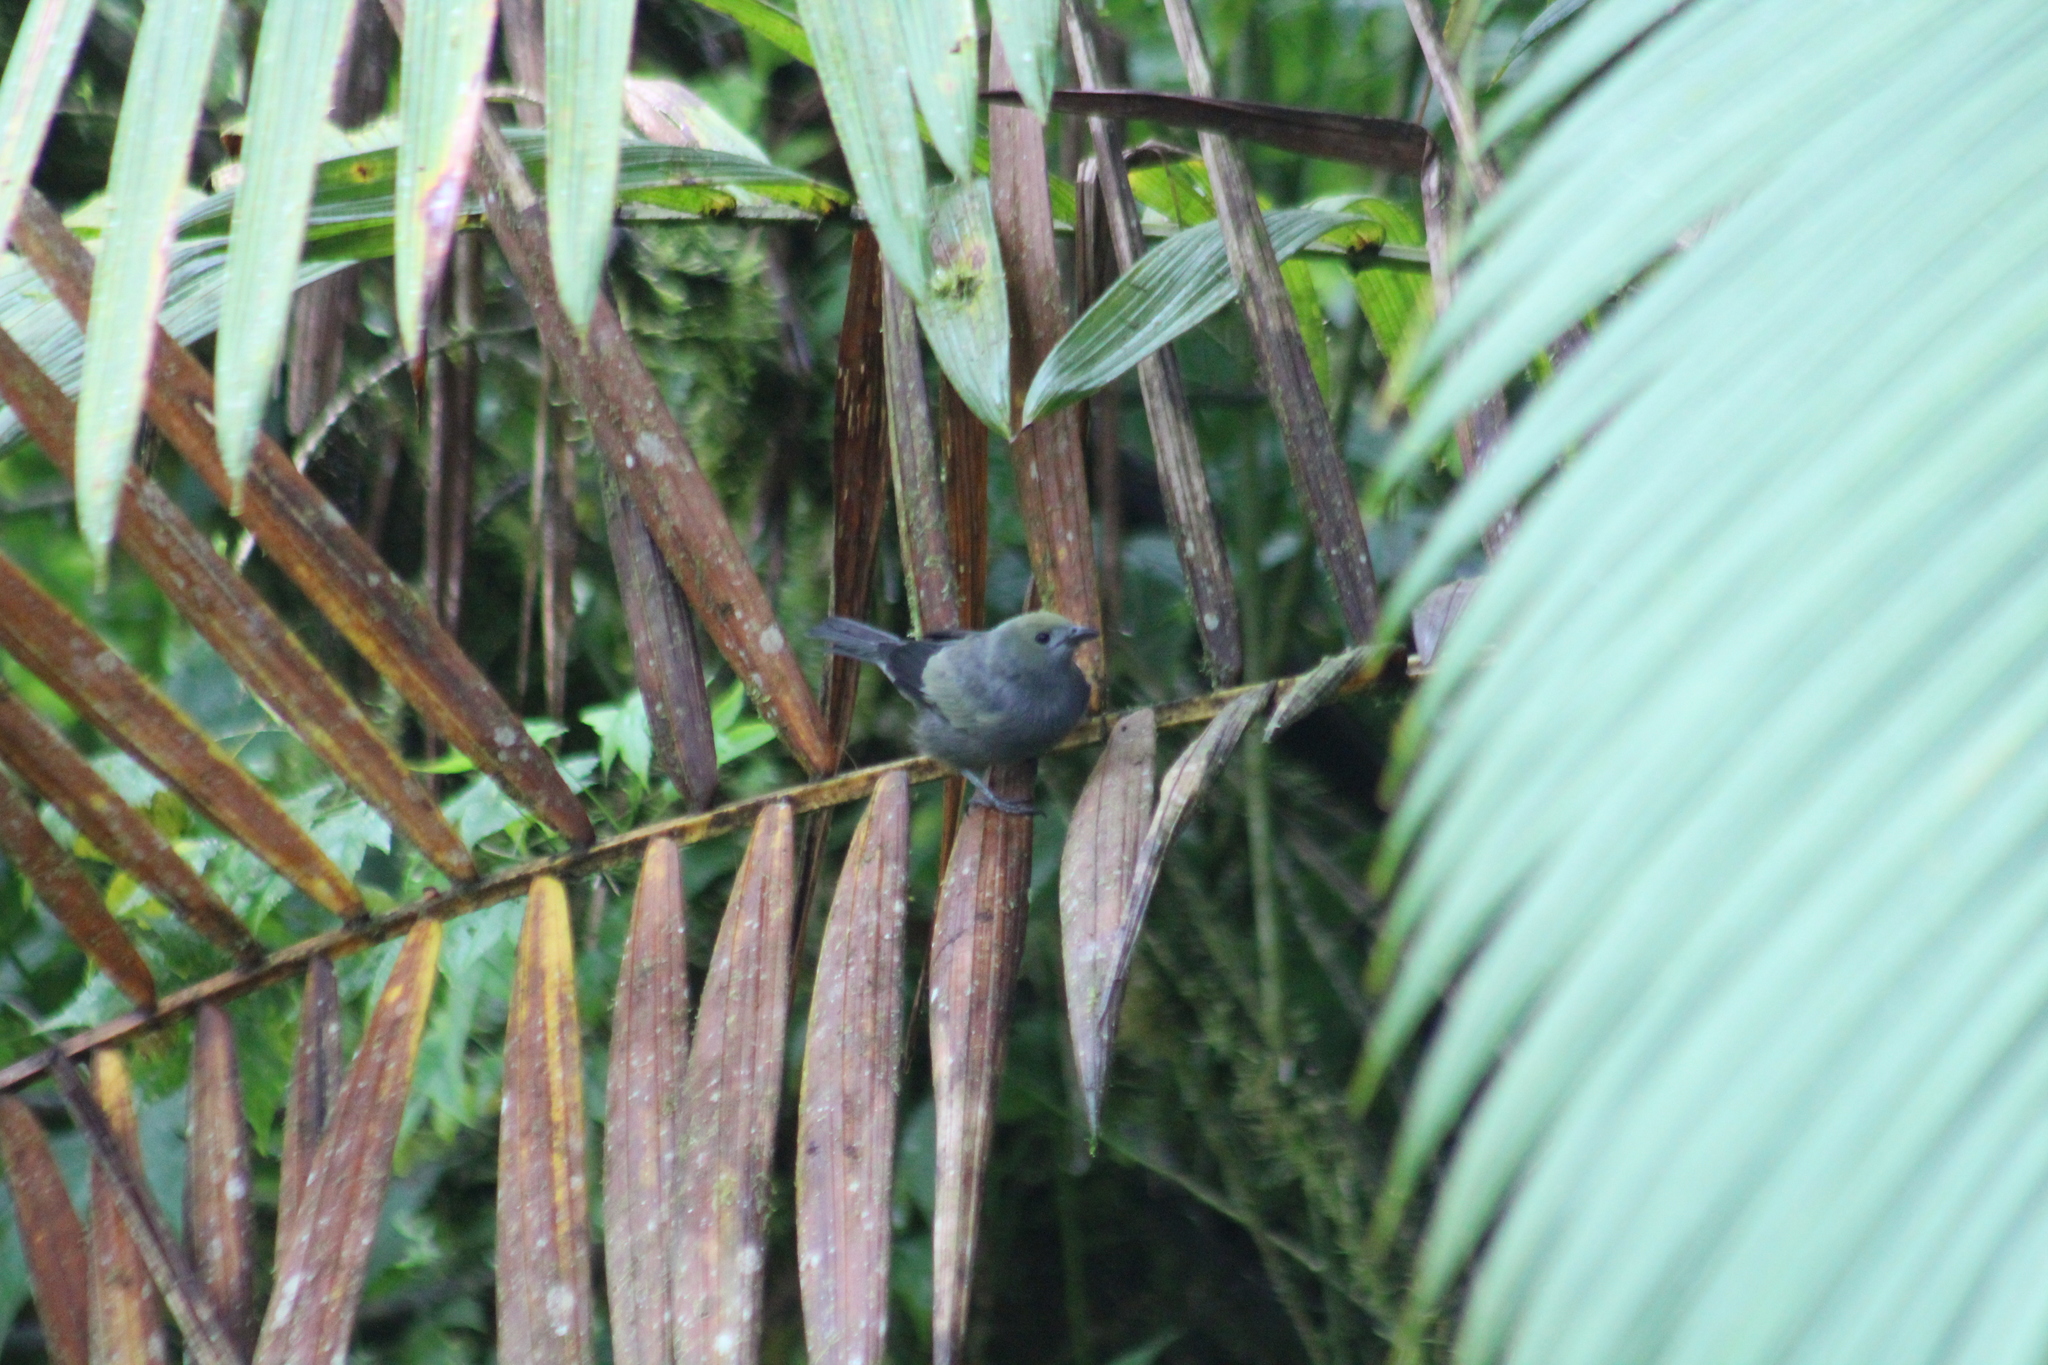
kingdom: Animalia
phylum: Chordata
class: Aves
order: Passeriformes
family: Thraupidae
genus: Thraupis
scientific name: Thraupis palmarum
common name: Palm tanager
